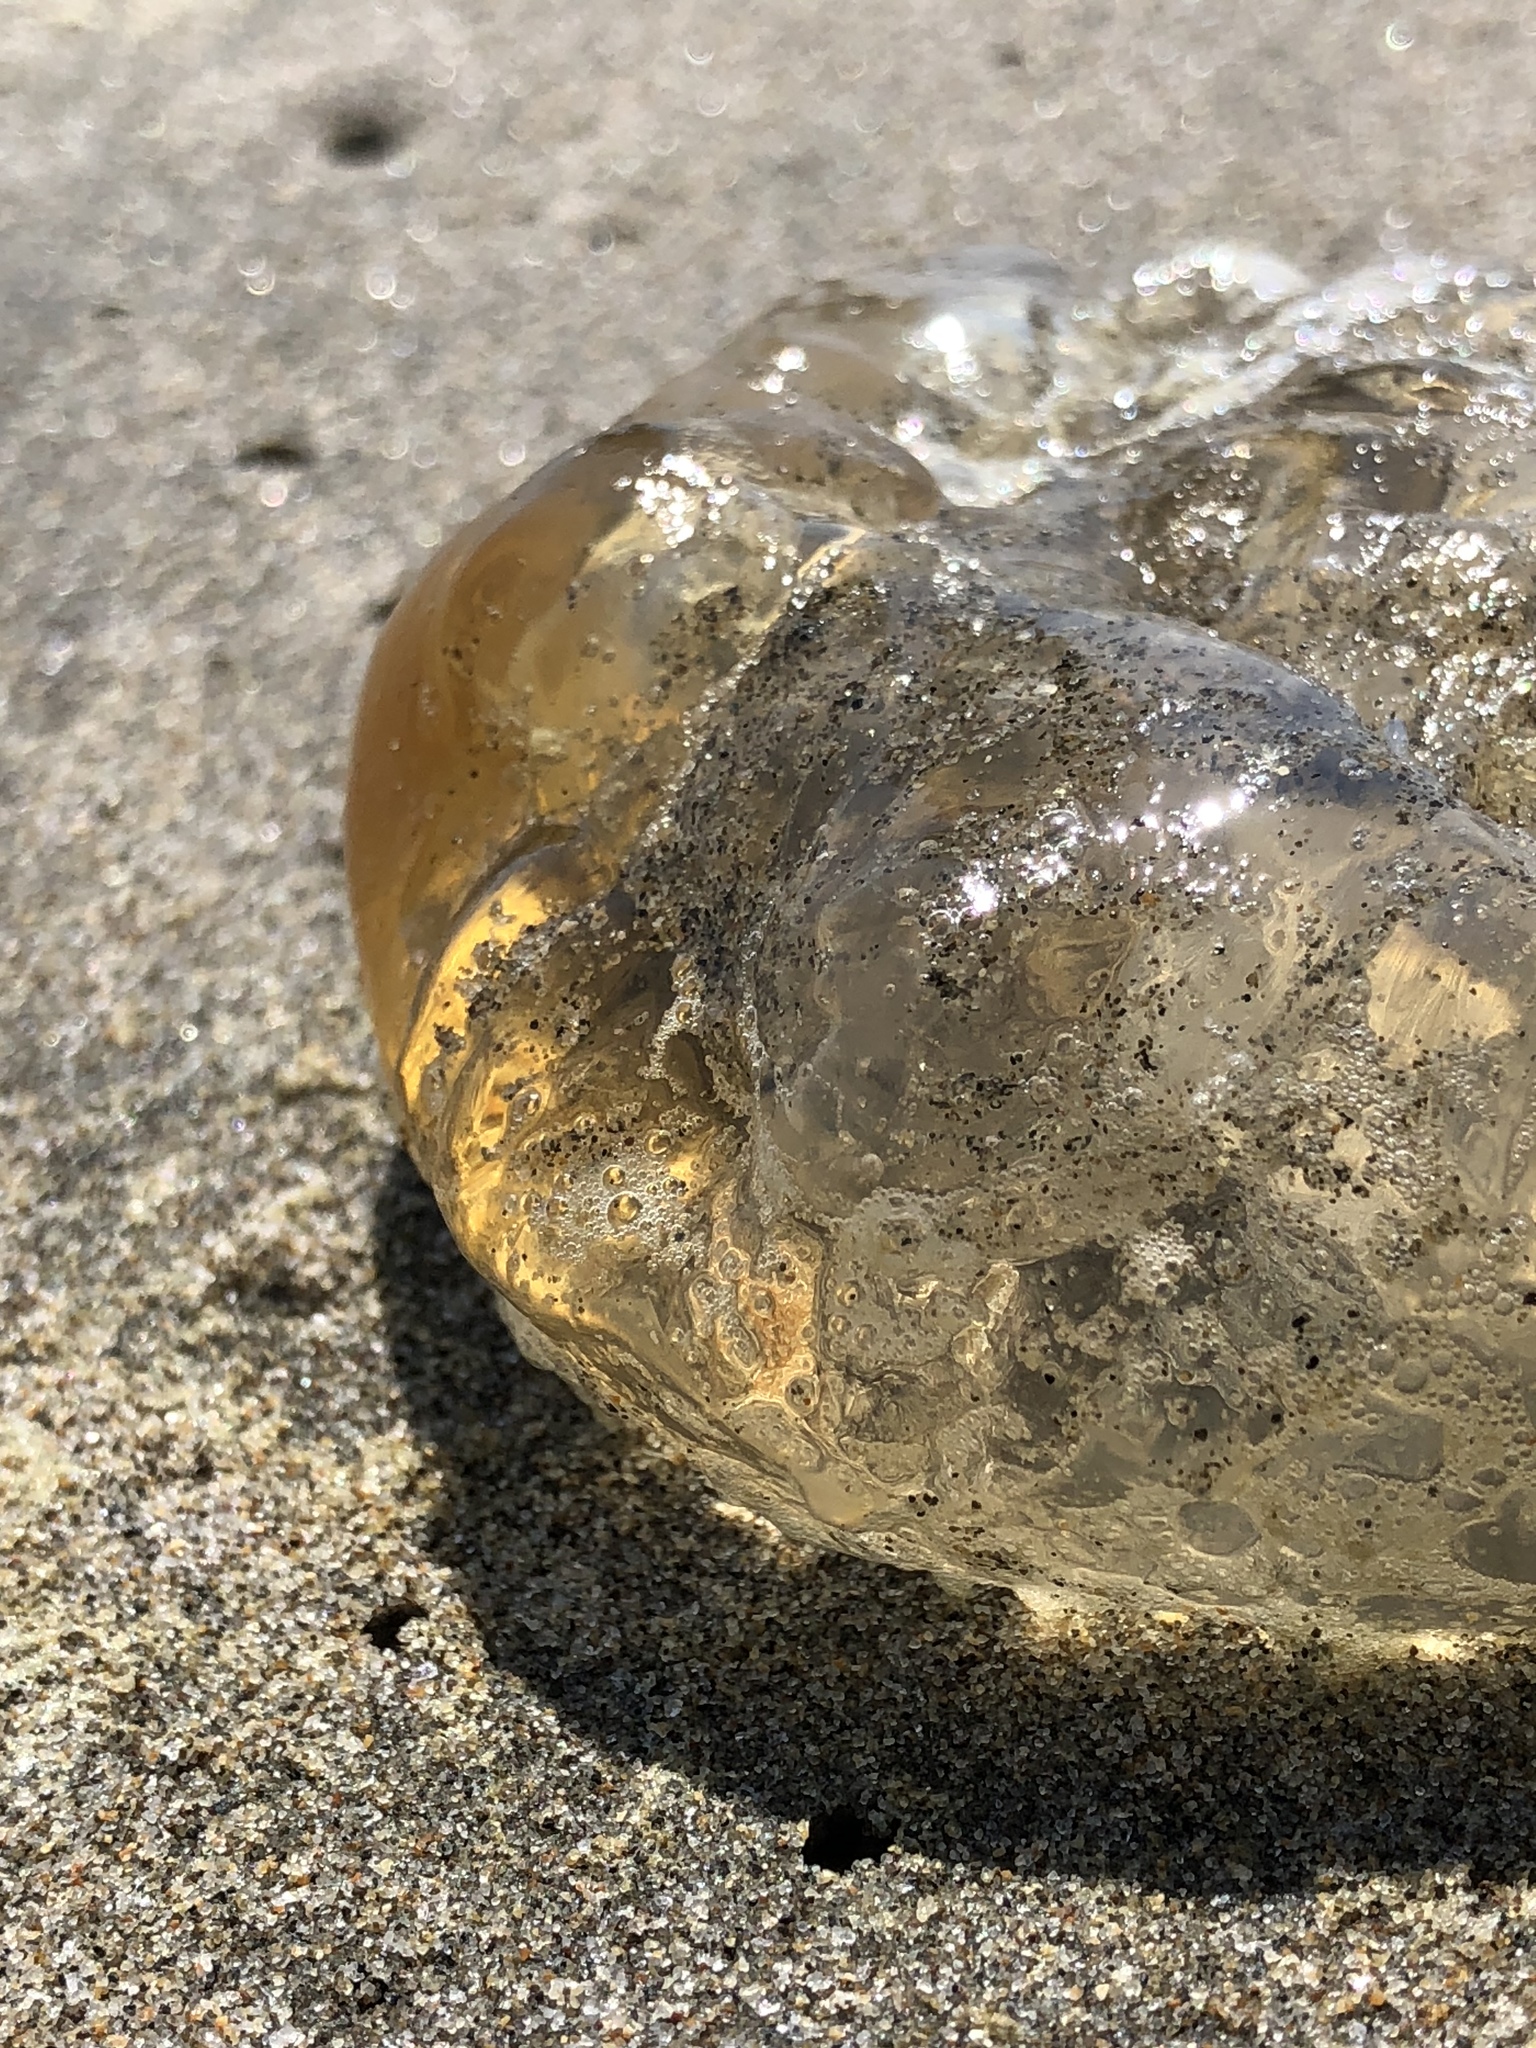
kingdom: Animalia
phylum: Cnidaria
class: Scyphozoa
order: Semaeostomeae
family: Pelagiidae
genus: Chrysaora
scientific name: Chrysaora fuscescens
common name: Sea nettle
